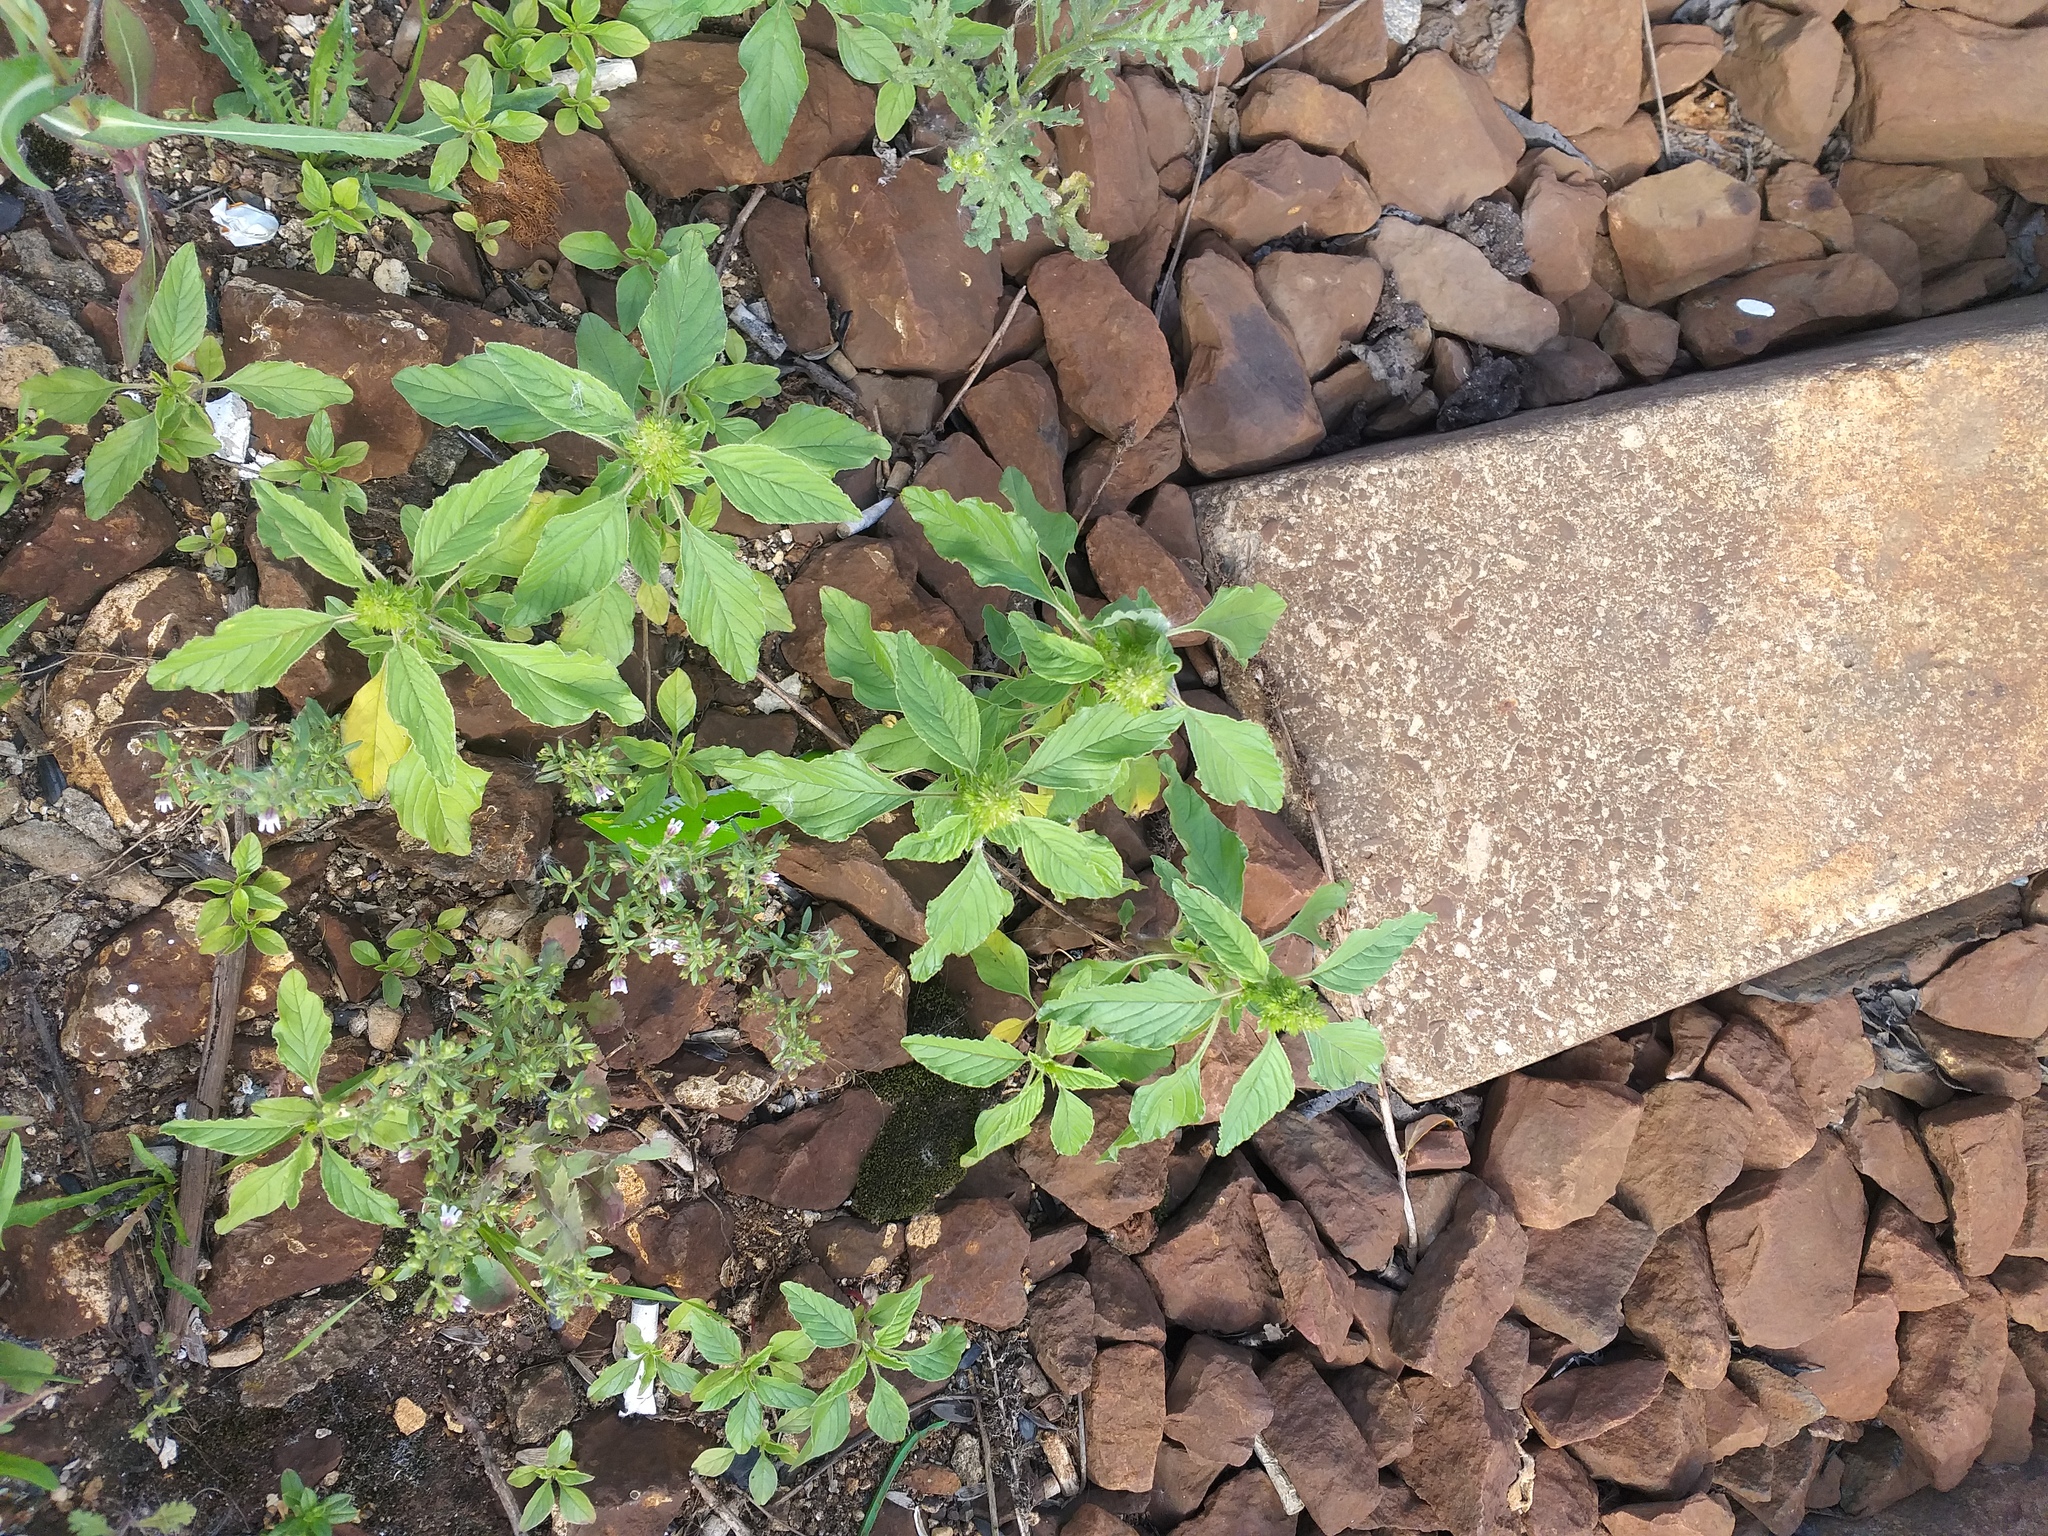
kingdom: Plantae
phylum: Tracheophyta
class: Magnoliopsida
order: Caryophyllales
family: Amaranthaceae
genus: Amaranthus
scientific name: Amaranthus retroflexus
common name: Redroot amaranth
